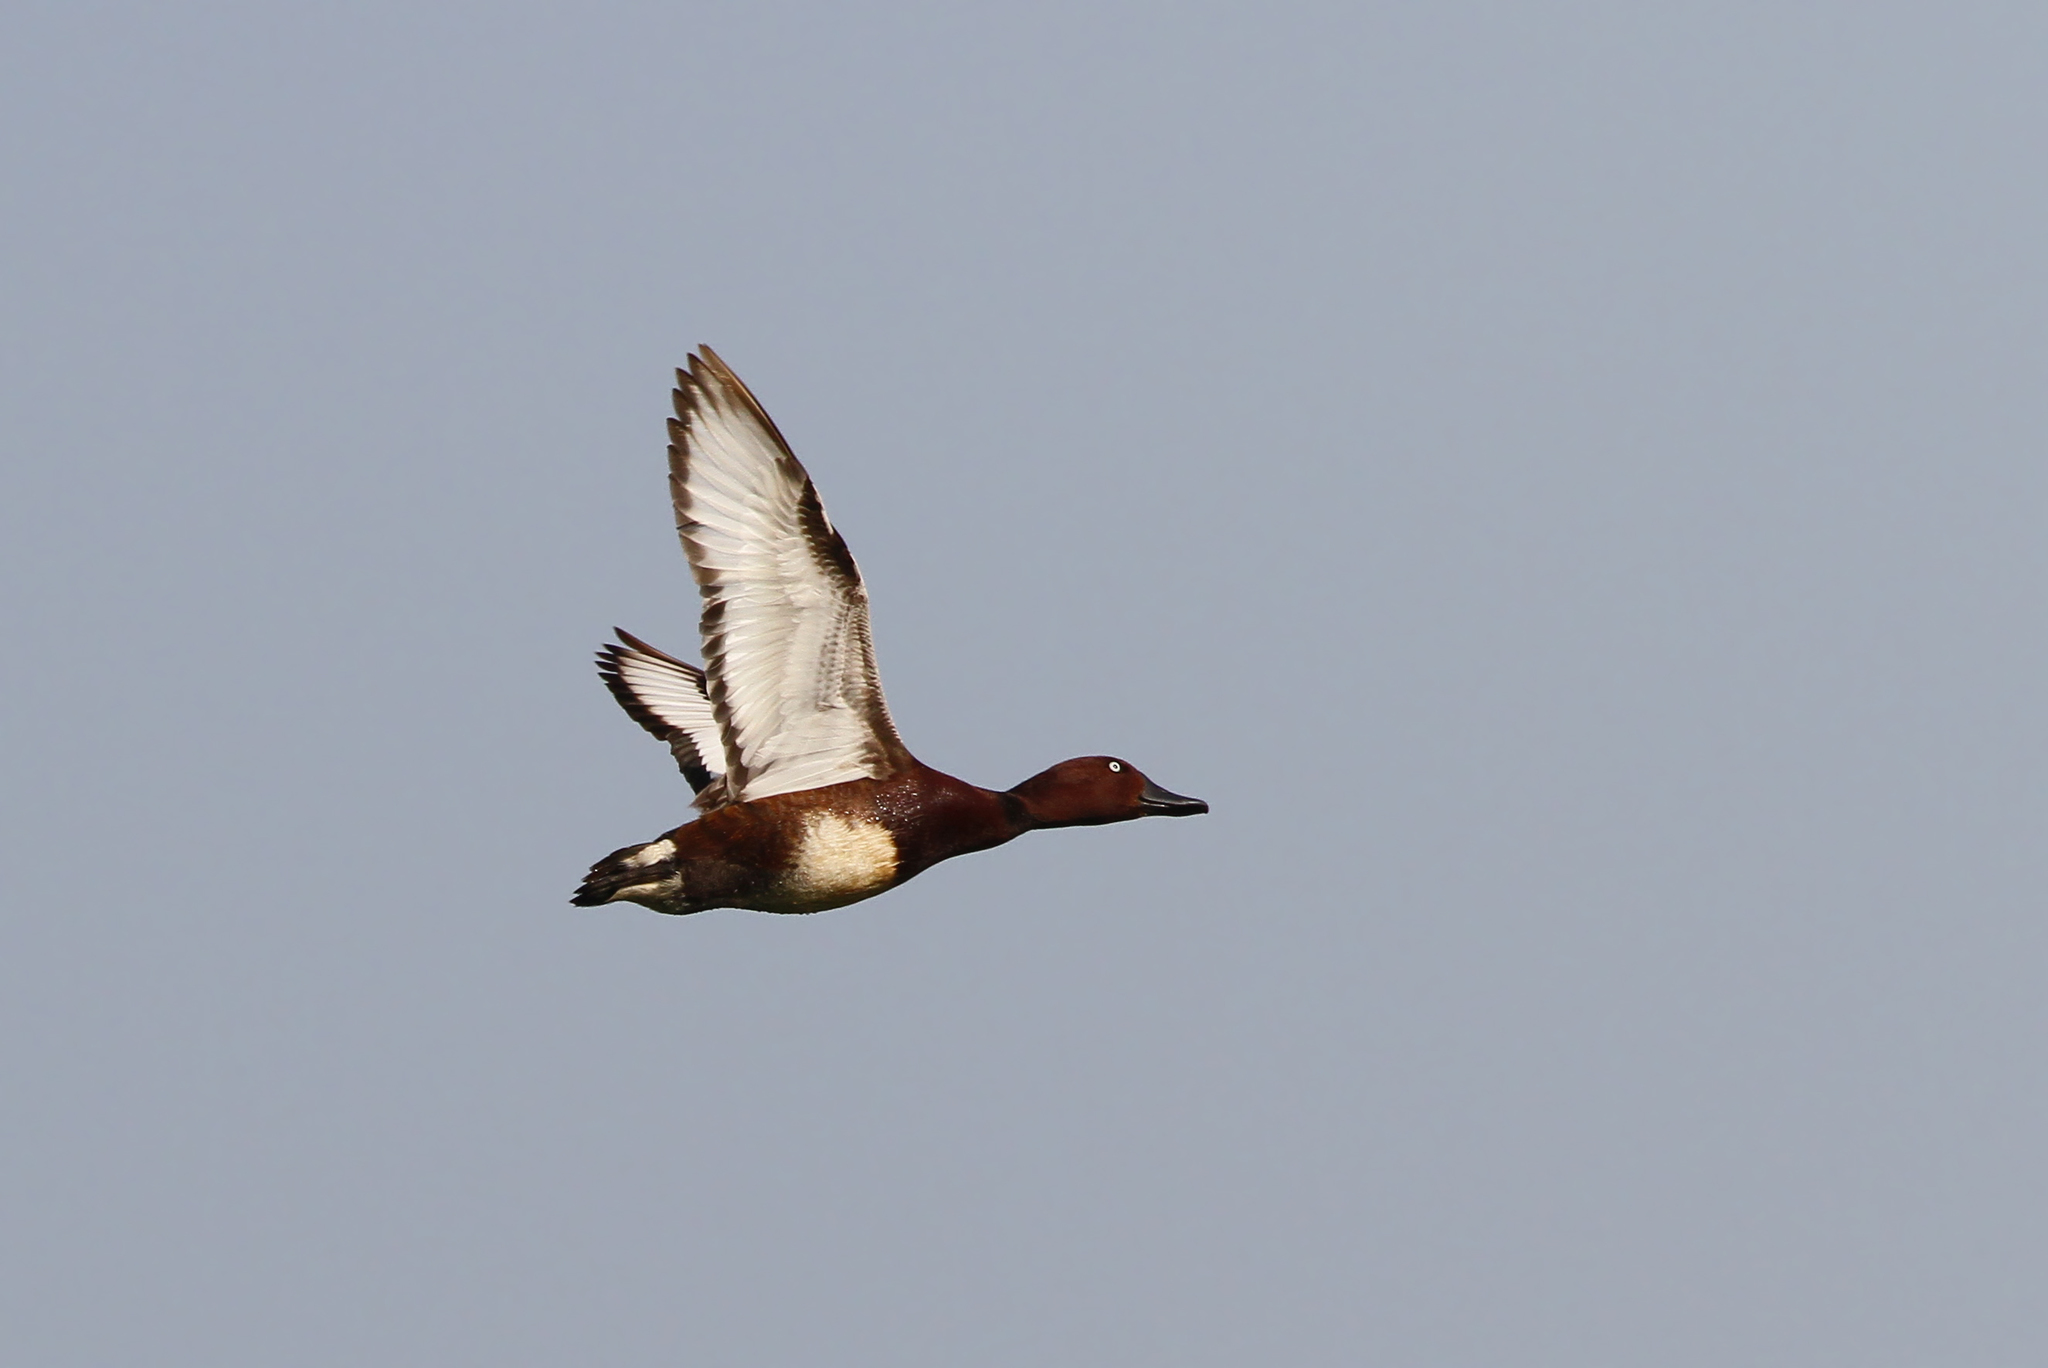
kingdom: Animalia
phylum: Chordata
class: Aves
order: Anseriformes
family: Anatidae
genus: Aythya
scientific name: Aythya nyroca
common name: Ferruginous duck
